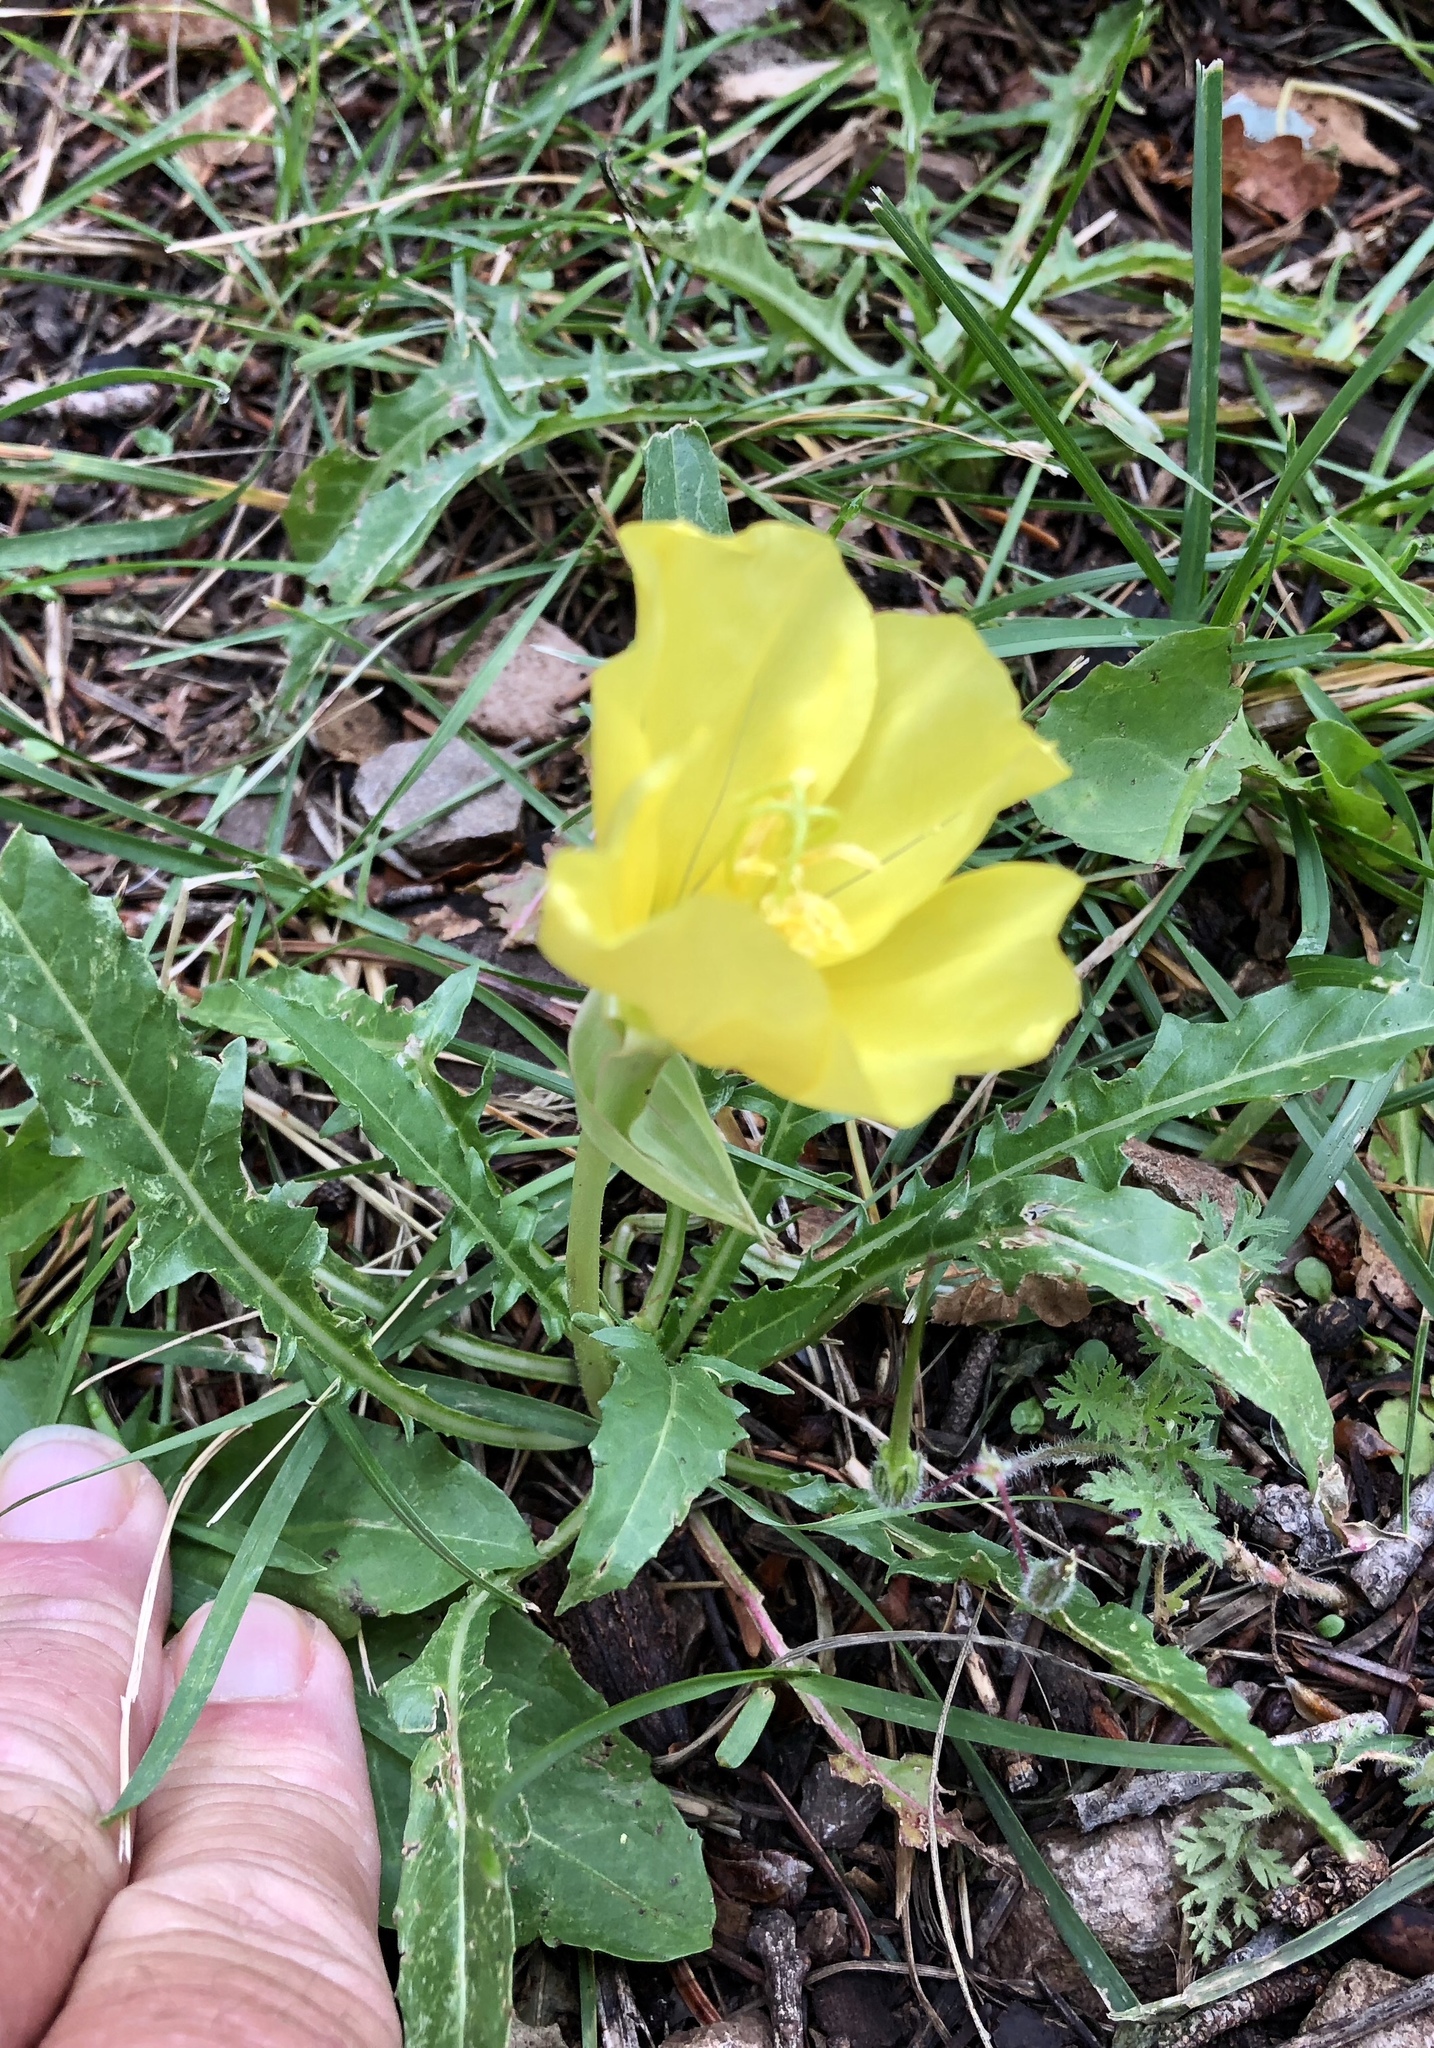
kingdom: Plantae
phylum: Tracheophyta
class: Magnoliopsida
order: Myrtales
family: Onagraceae
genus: Oenothera
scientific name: Oenothera triloba
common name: Sessile evening-primrose
